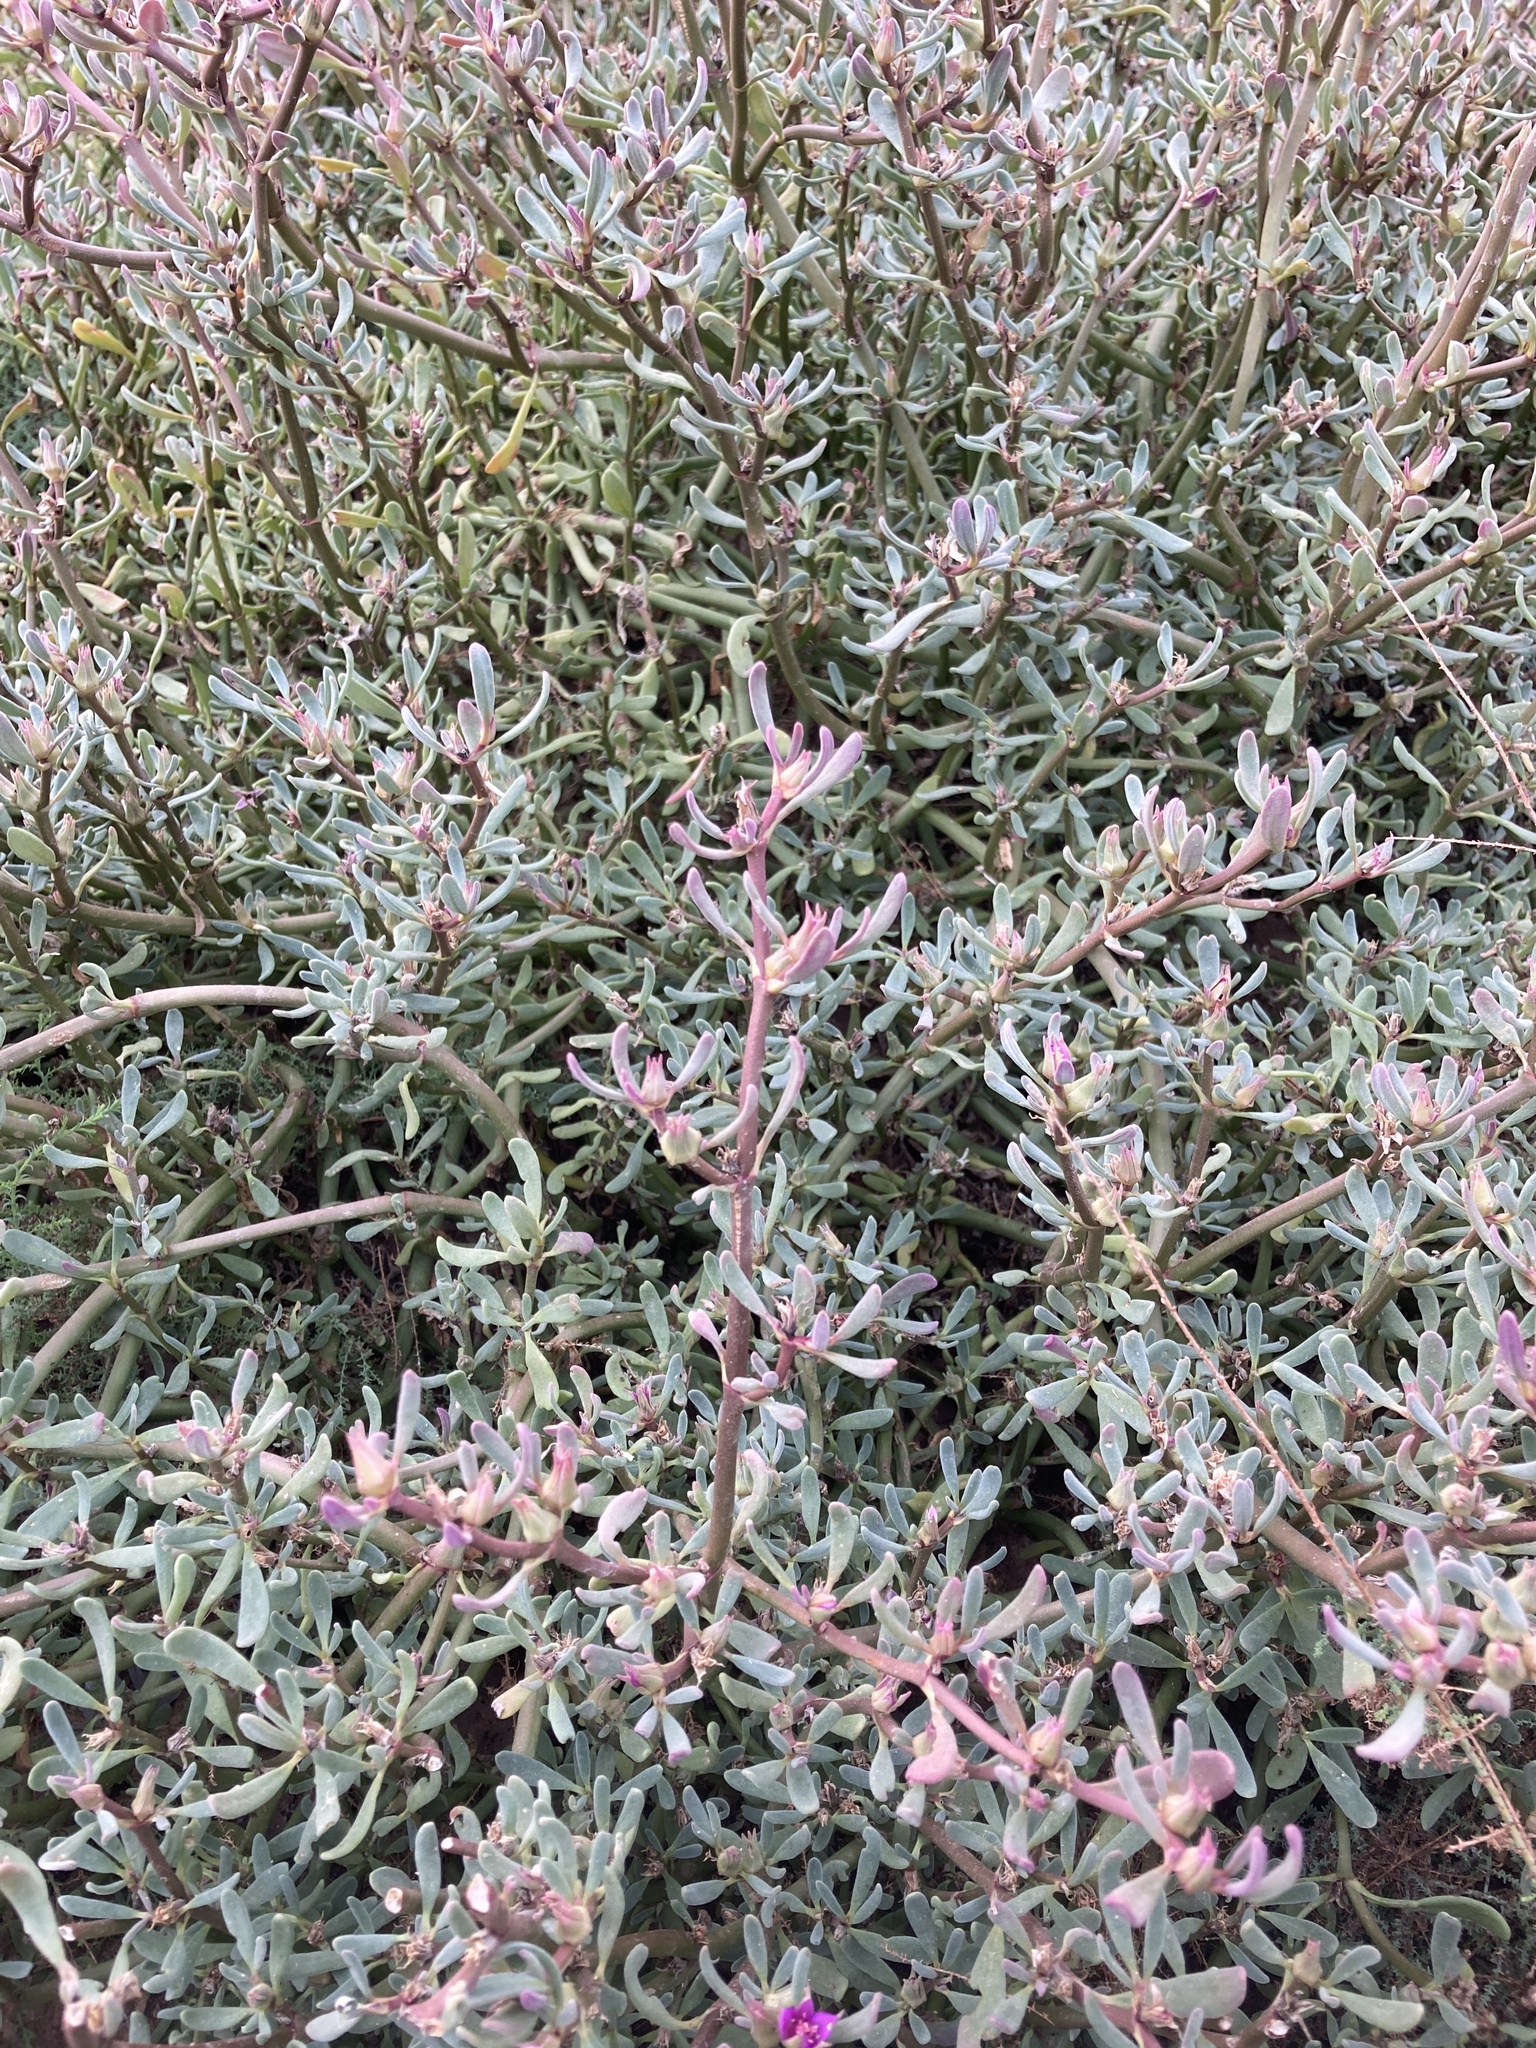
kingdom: Plantae
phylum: Tracheophyta
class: Magnoliopsida
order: Caryophyllales
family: Aizoaceae
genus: Sesuvium
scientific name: Sesuvium revolutifolium
